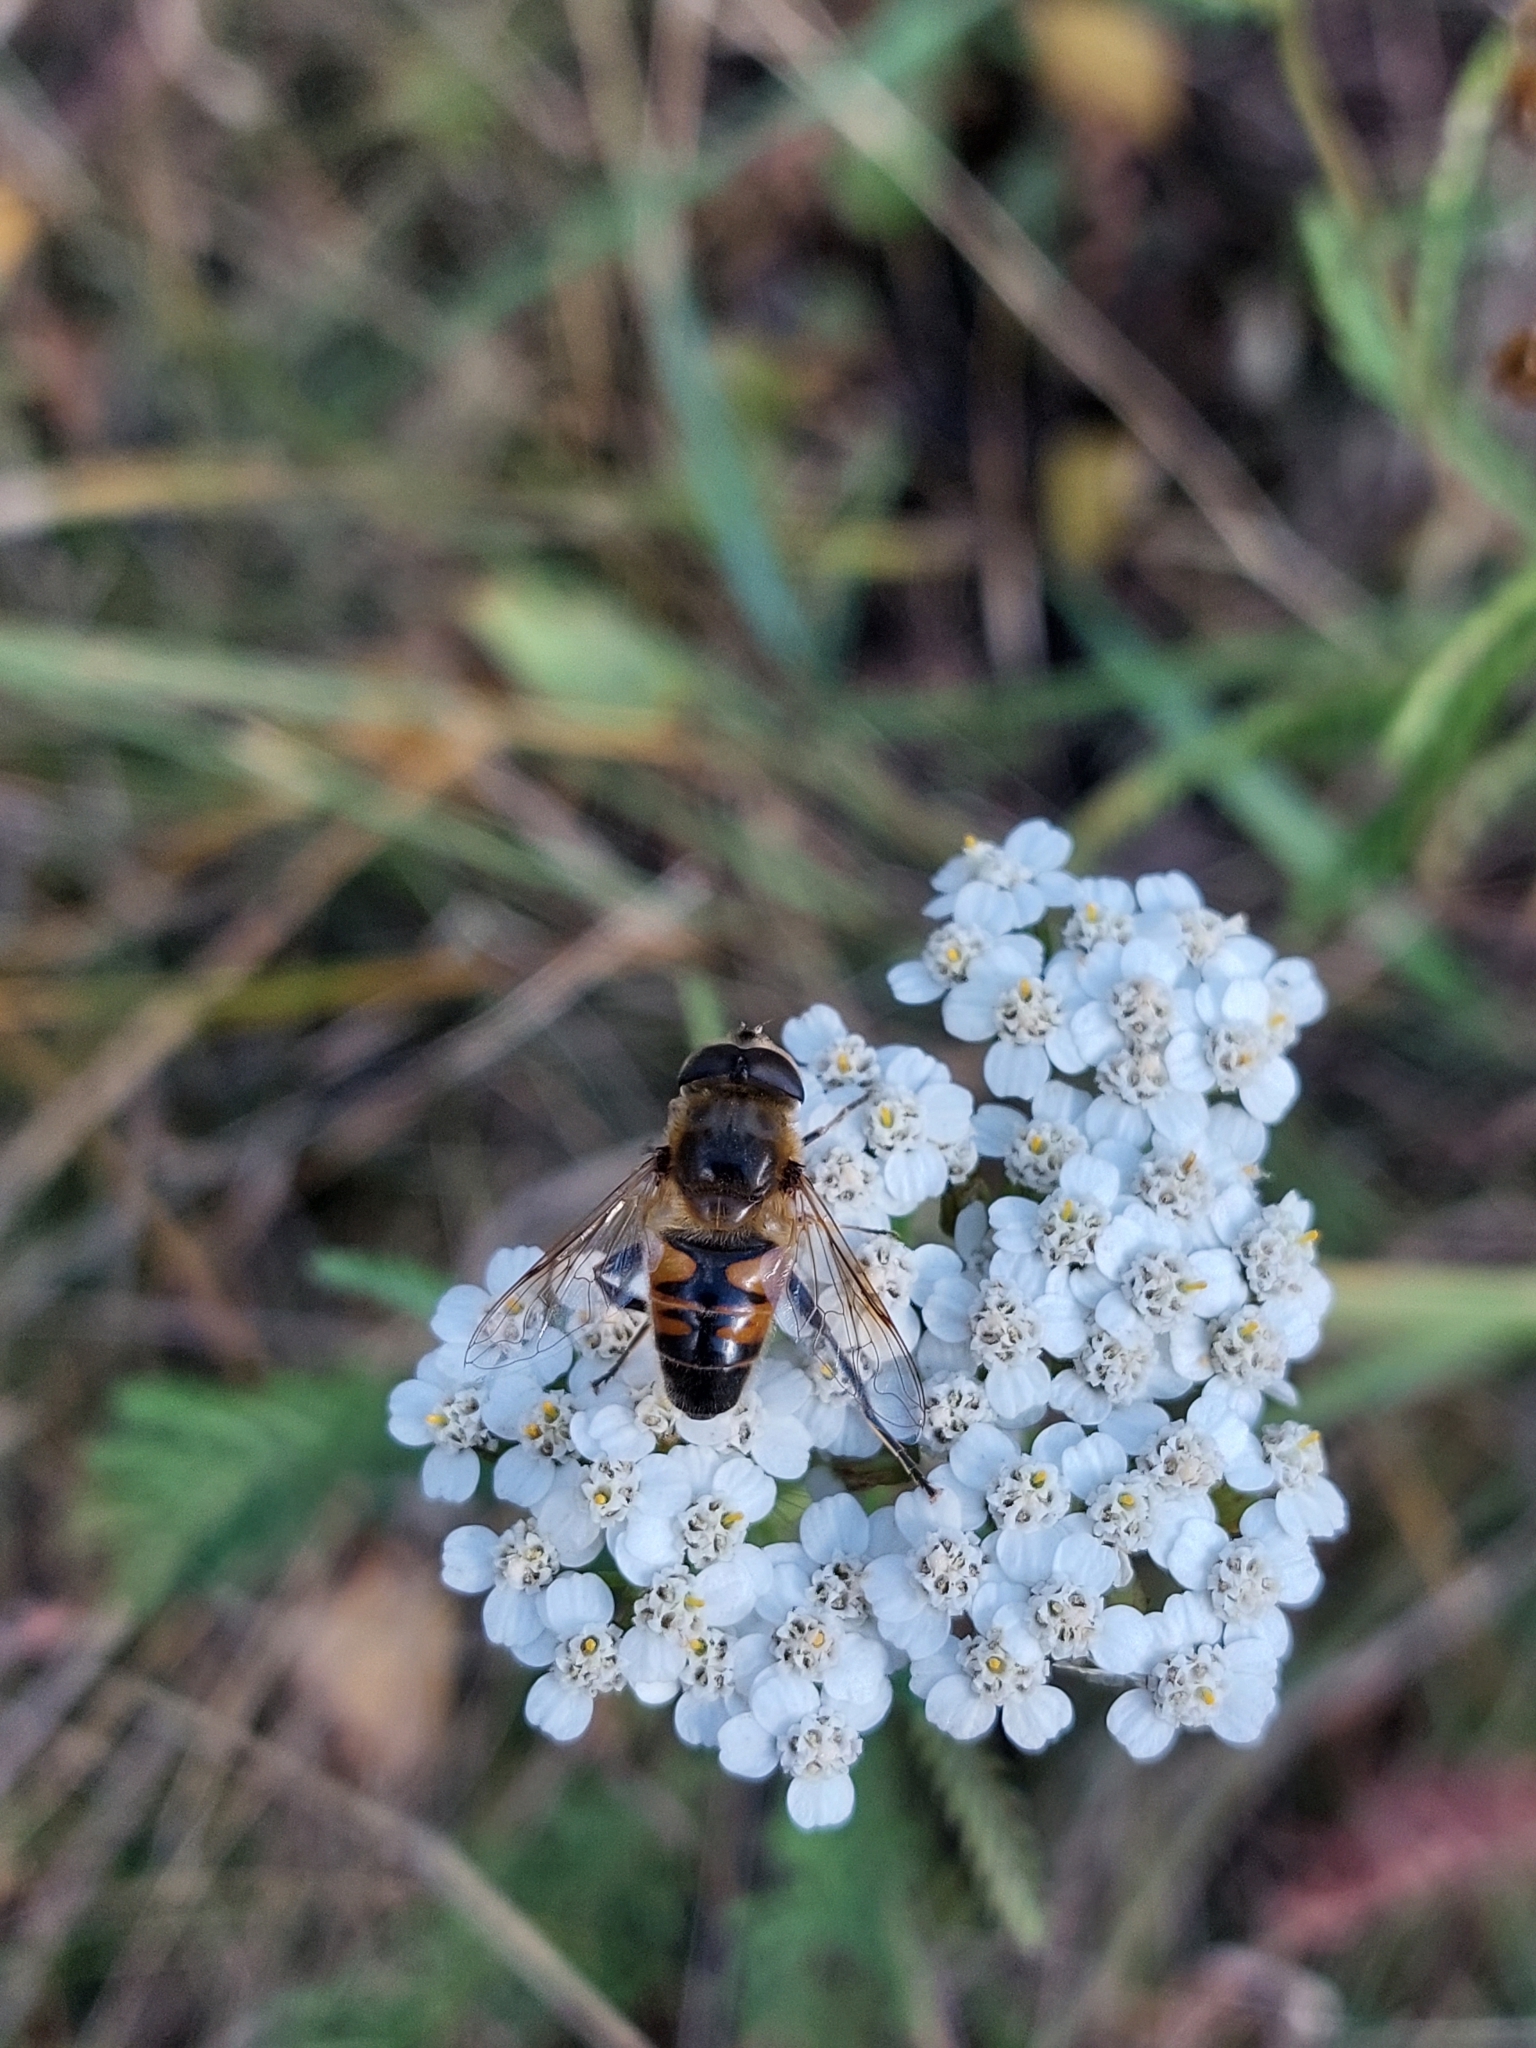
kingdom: Animalia
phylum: Arthropoda
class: Insecta
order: Diptera
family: Syrphidae
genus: Eristalis
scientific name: Eristalis tenax
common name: Drone fly
